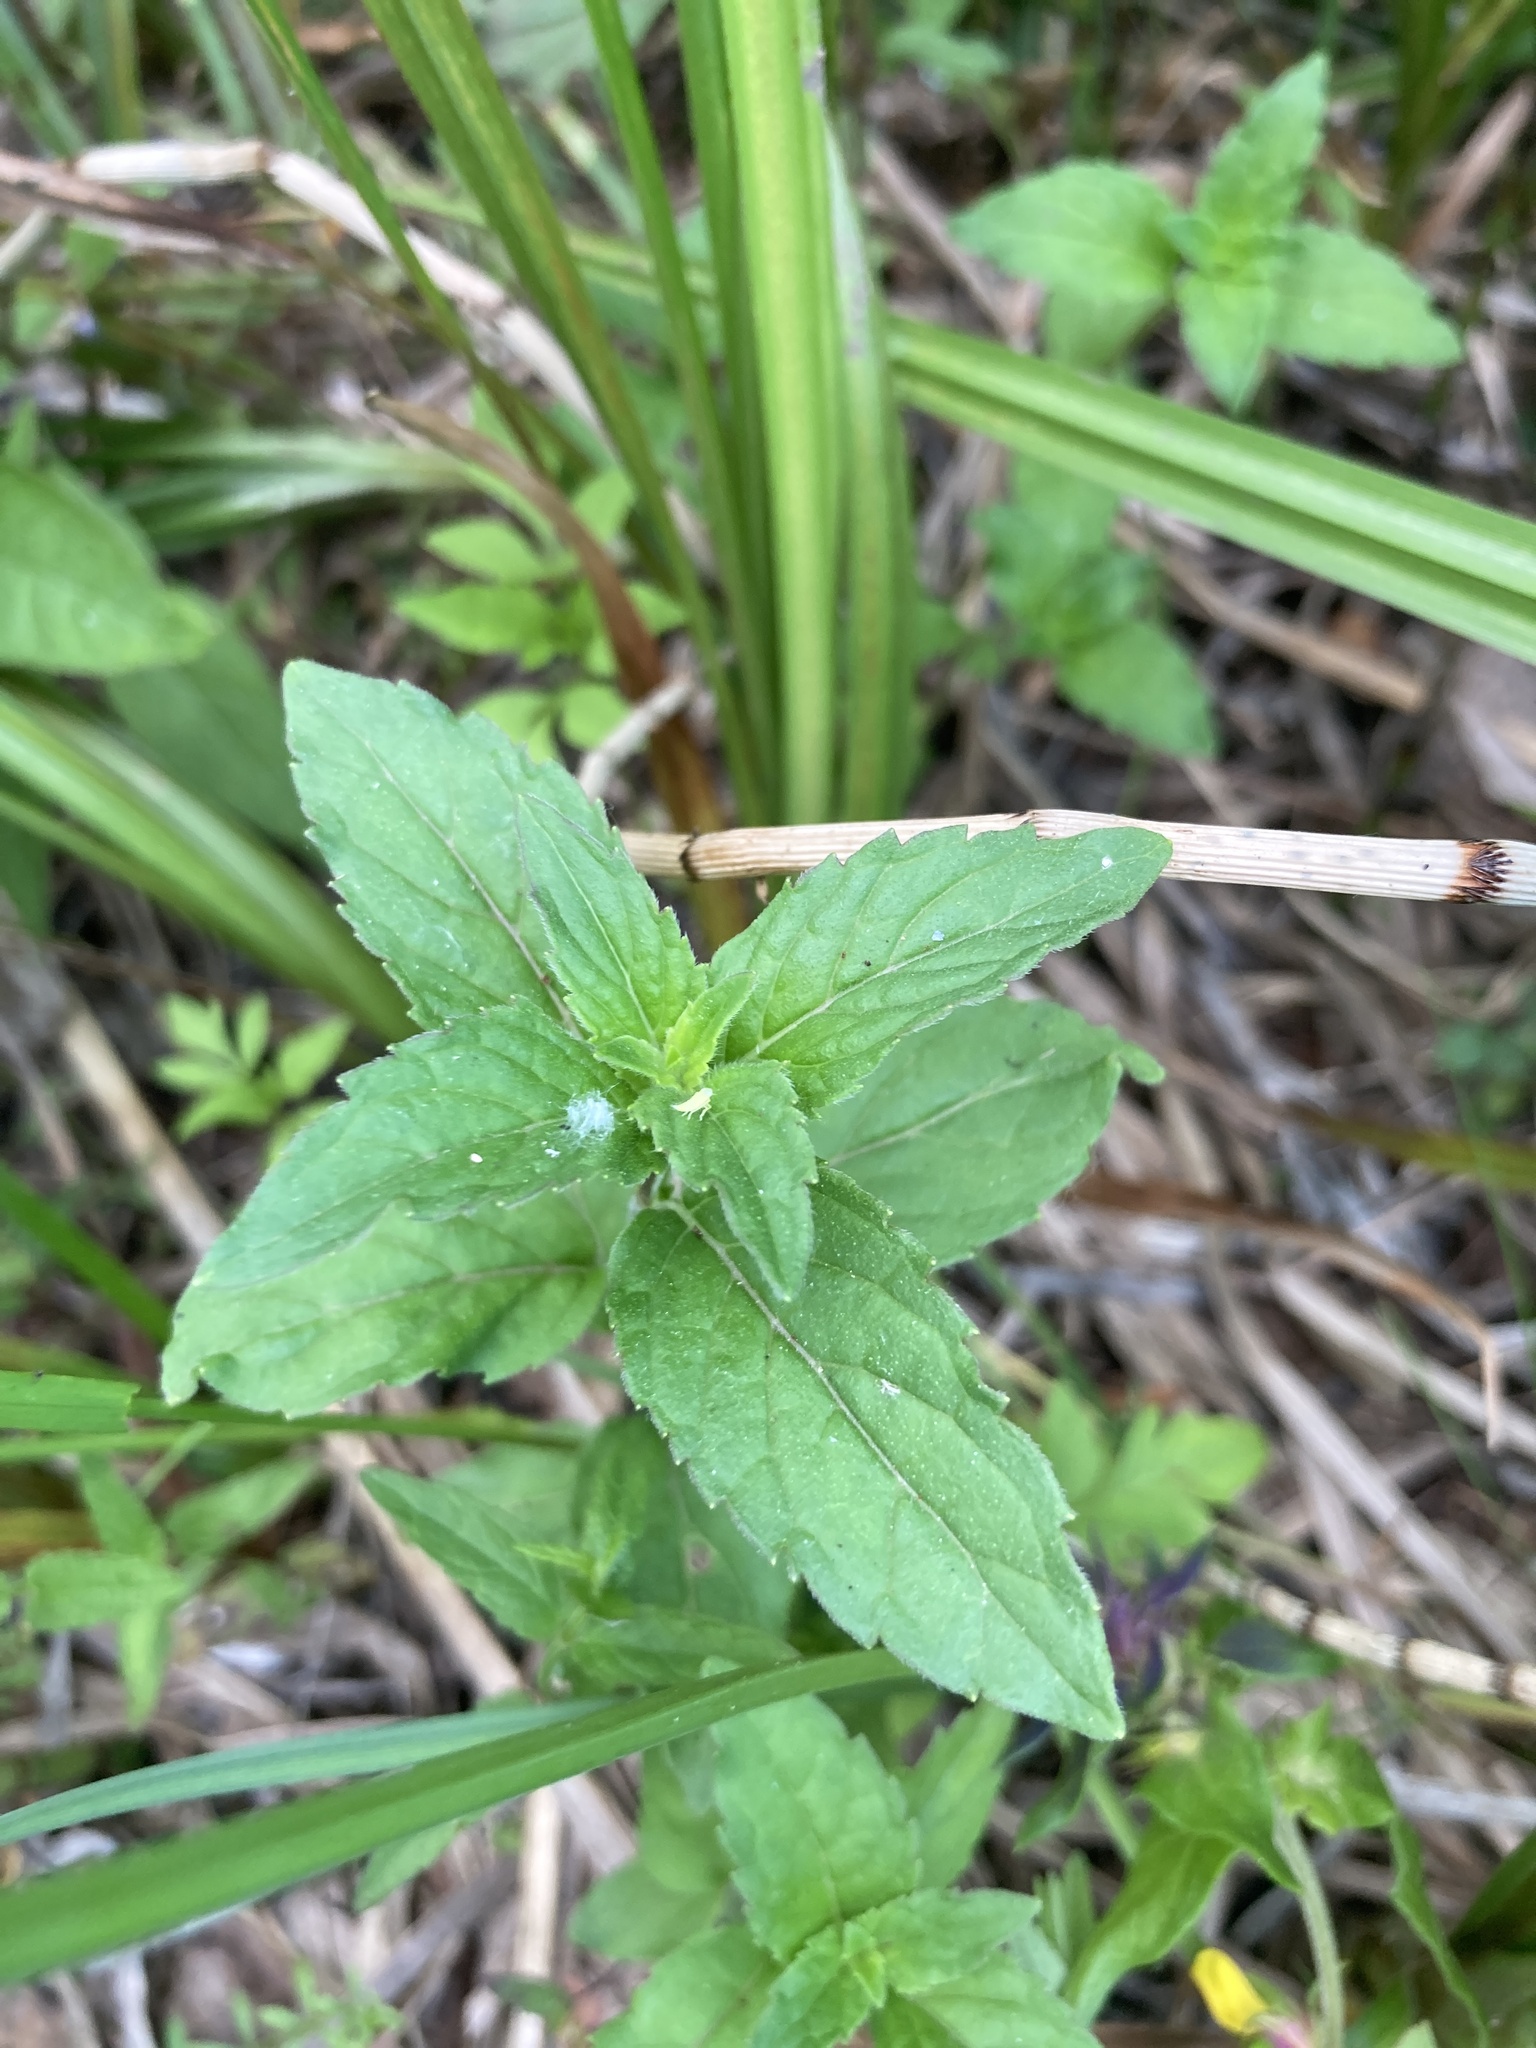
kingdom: Plantae
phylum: Tracheophyta
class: Magnoliopsida
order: Lamiales
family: Lamiaceae
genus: Mentha
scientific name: Mentha arvensis
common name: Corn mint
